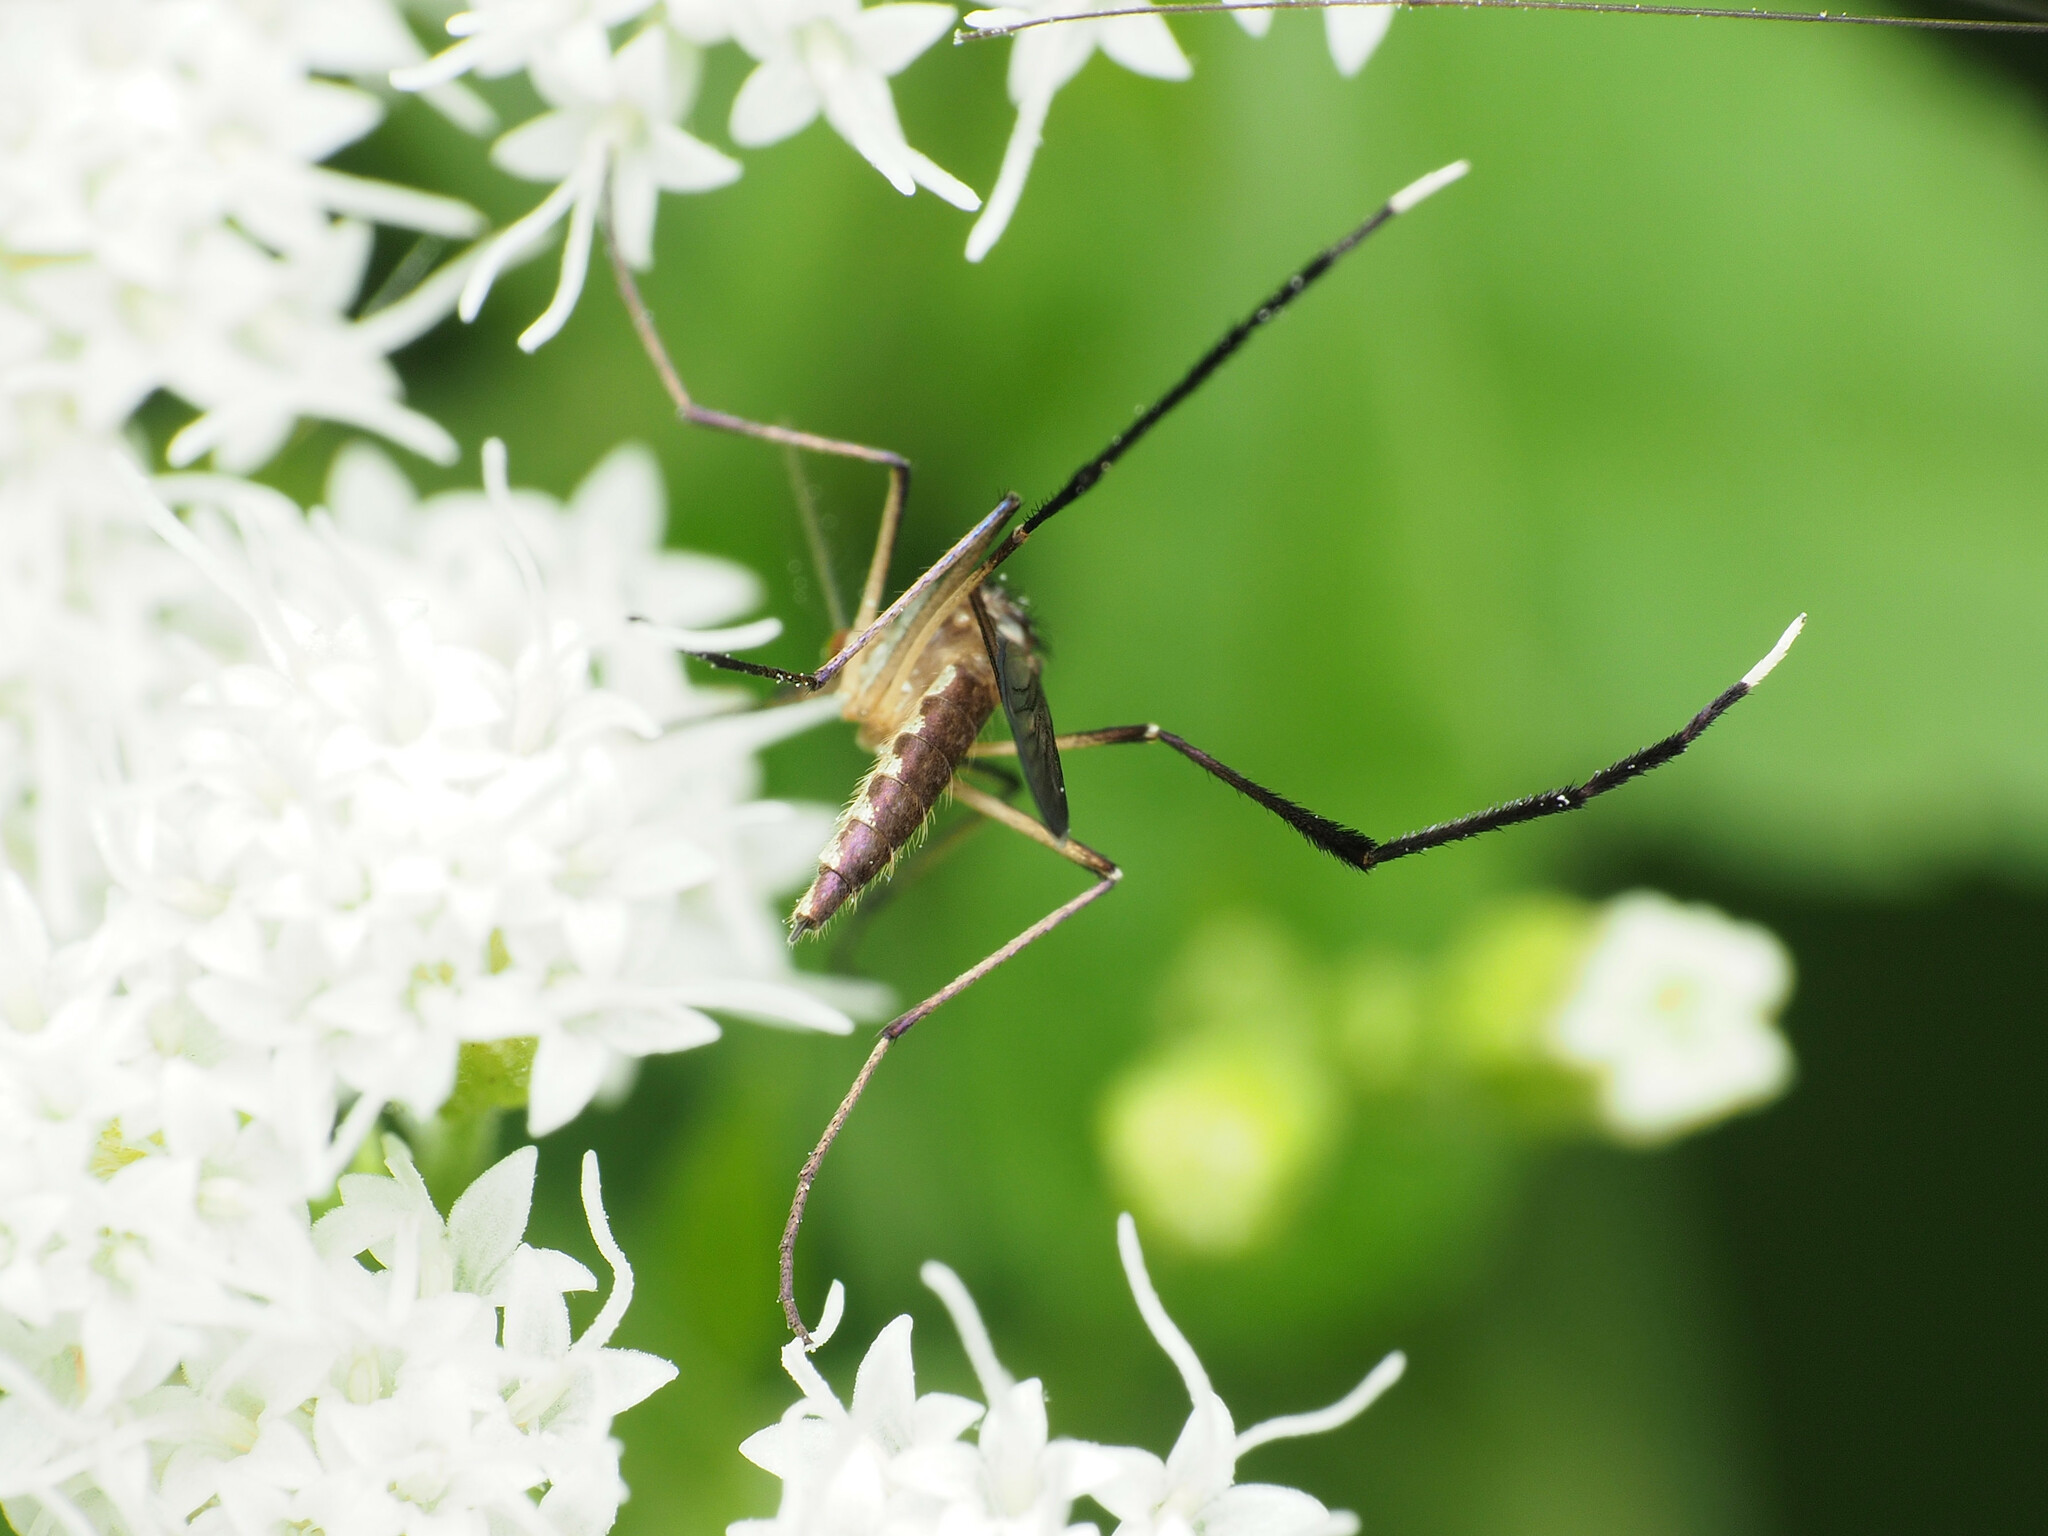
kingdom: Animalia
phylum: Arthropoda
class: Insecta
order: Diptera
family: Culicidae
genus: Psorophora
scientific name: Psorophora ferox
